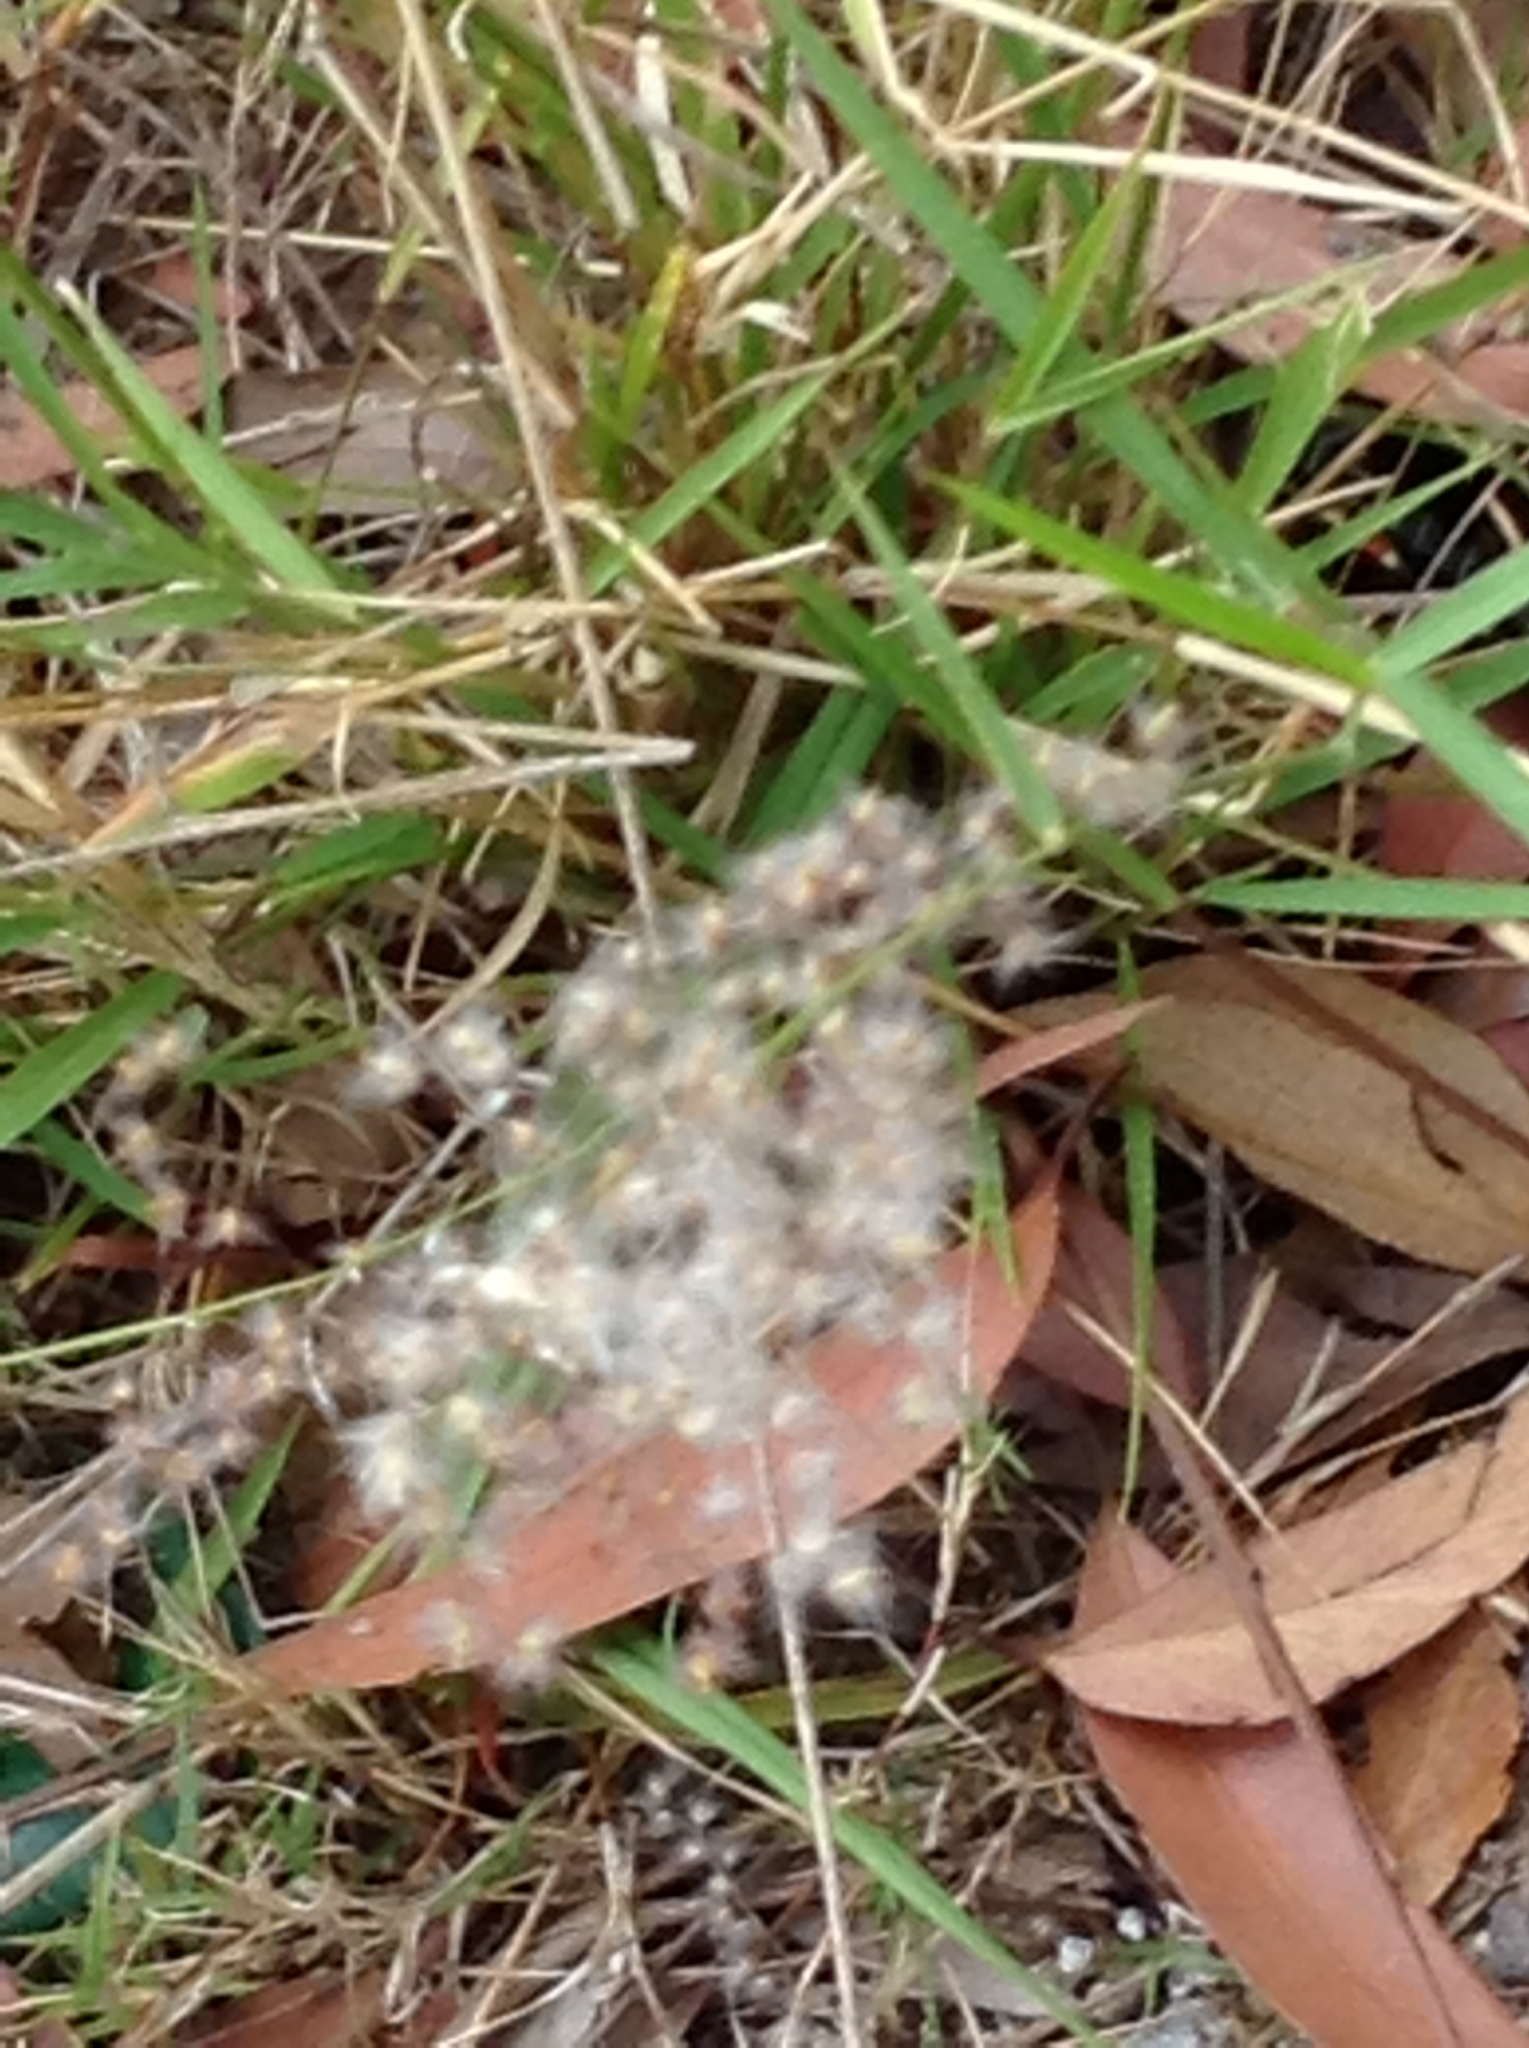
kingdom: Plantae
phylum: Tracheophyta
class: Liliopsida
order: Poales
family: Poaceae
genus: Melinis
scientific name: Melinis repens
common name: Rose natal grass
